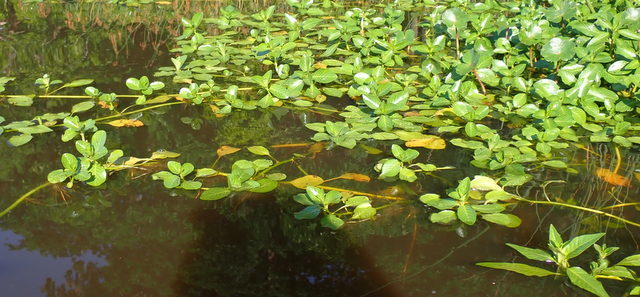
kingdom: Plantae
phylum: Tracheophyta
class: Magnoliopsida
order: Myrtales
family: Onagraceae
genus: Ludwigia
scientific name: Ludwigia peploides
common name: Floating primrose-willow
